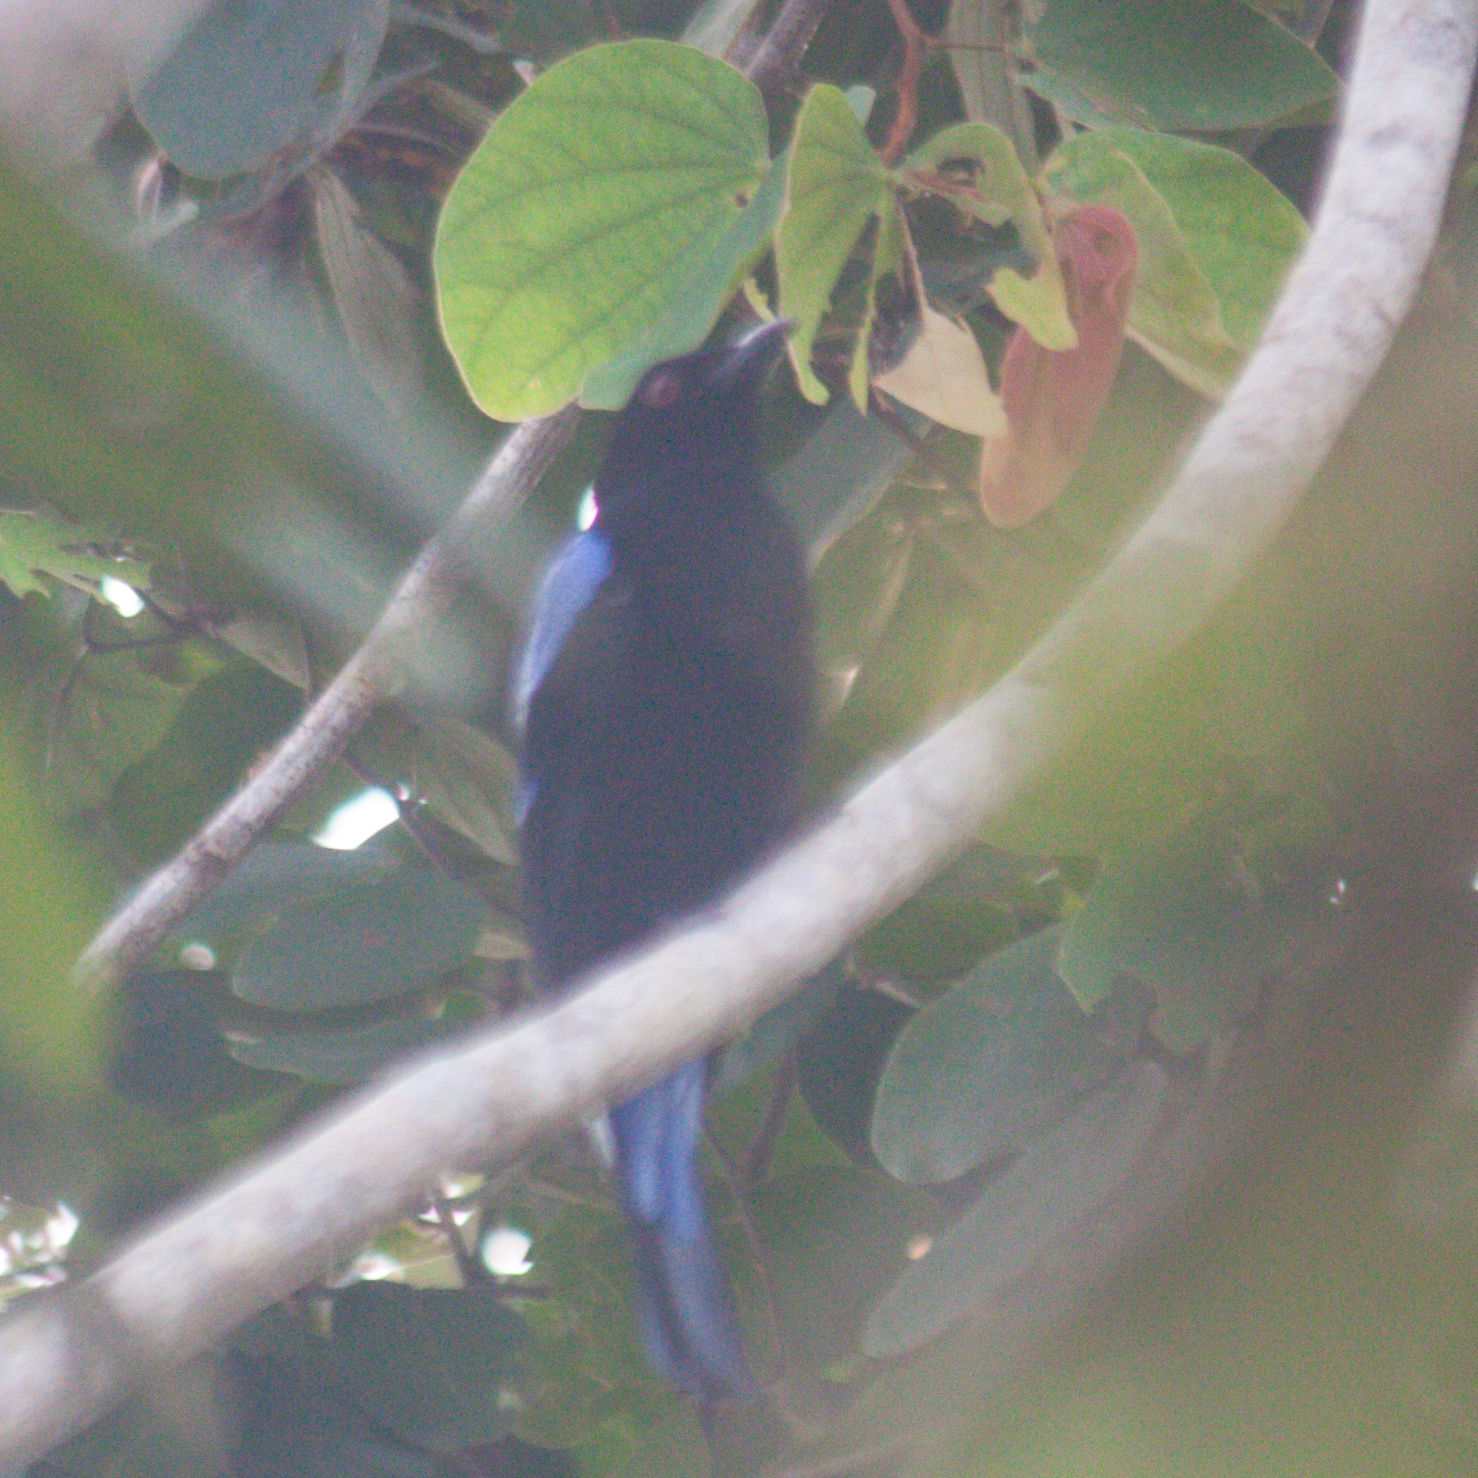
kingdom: Animalia
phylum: Chordata
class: Aves
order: Passeriformes
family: Irenidae
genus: Irena
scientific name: Irena puella
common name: Asian fairy-bluebird
